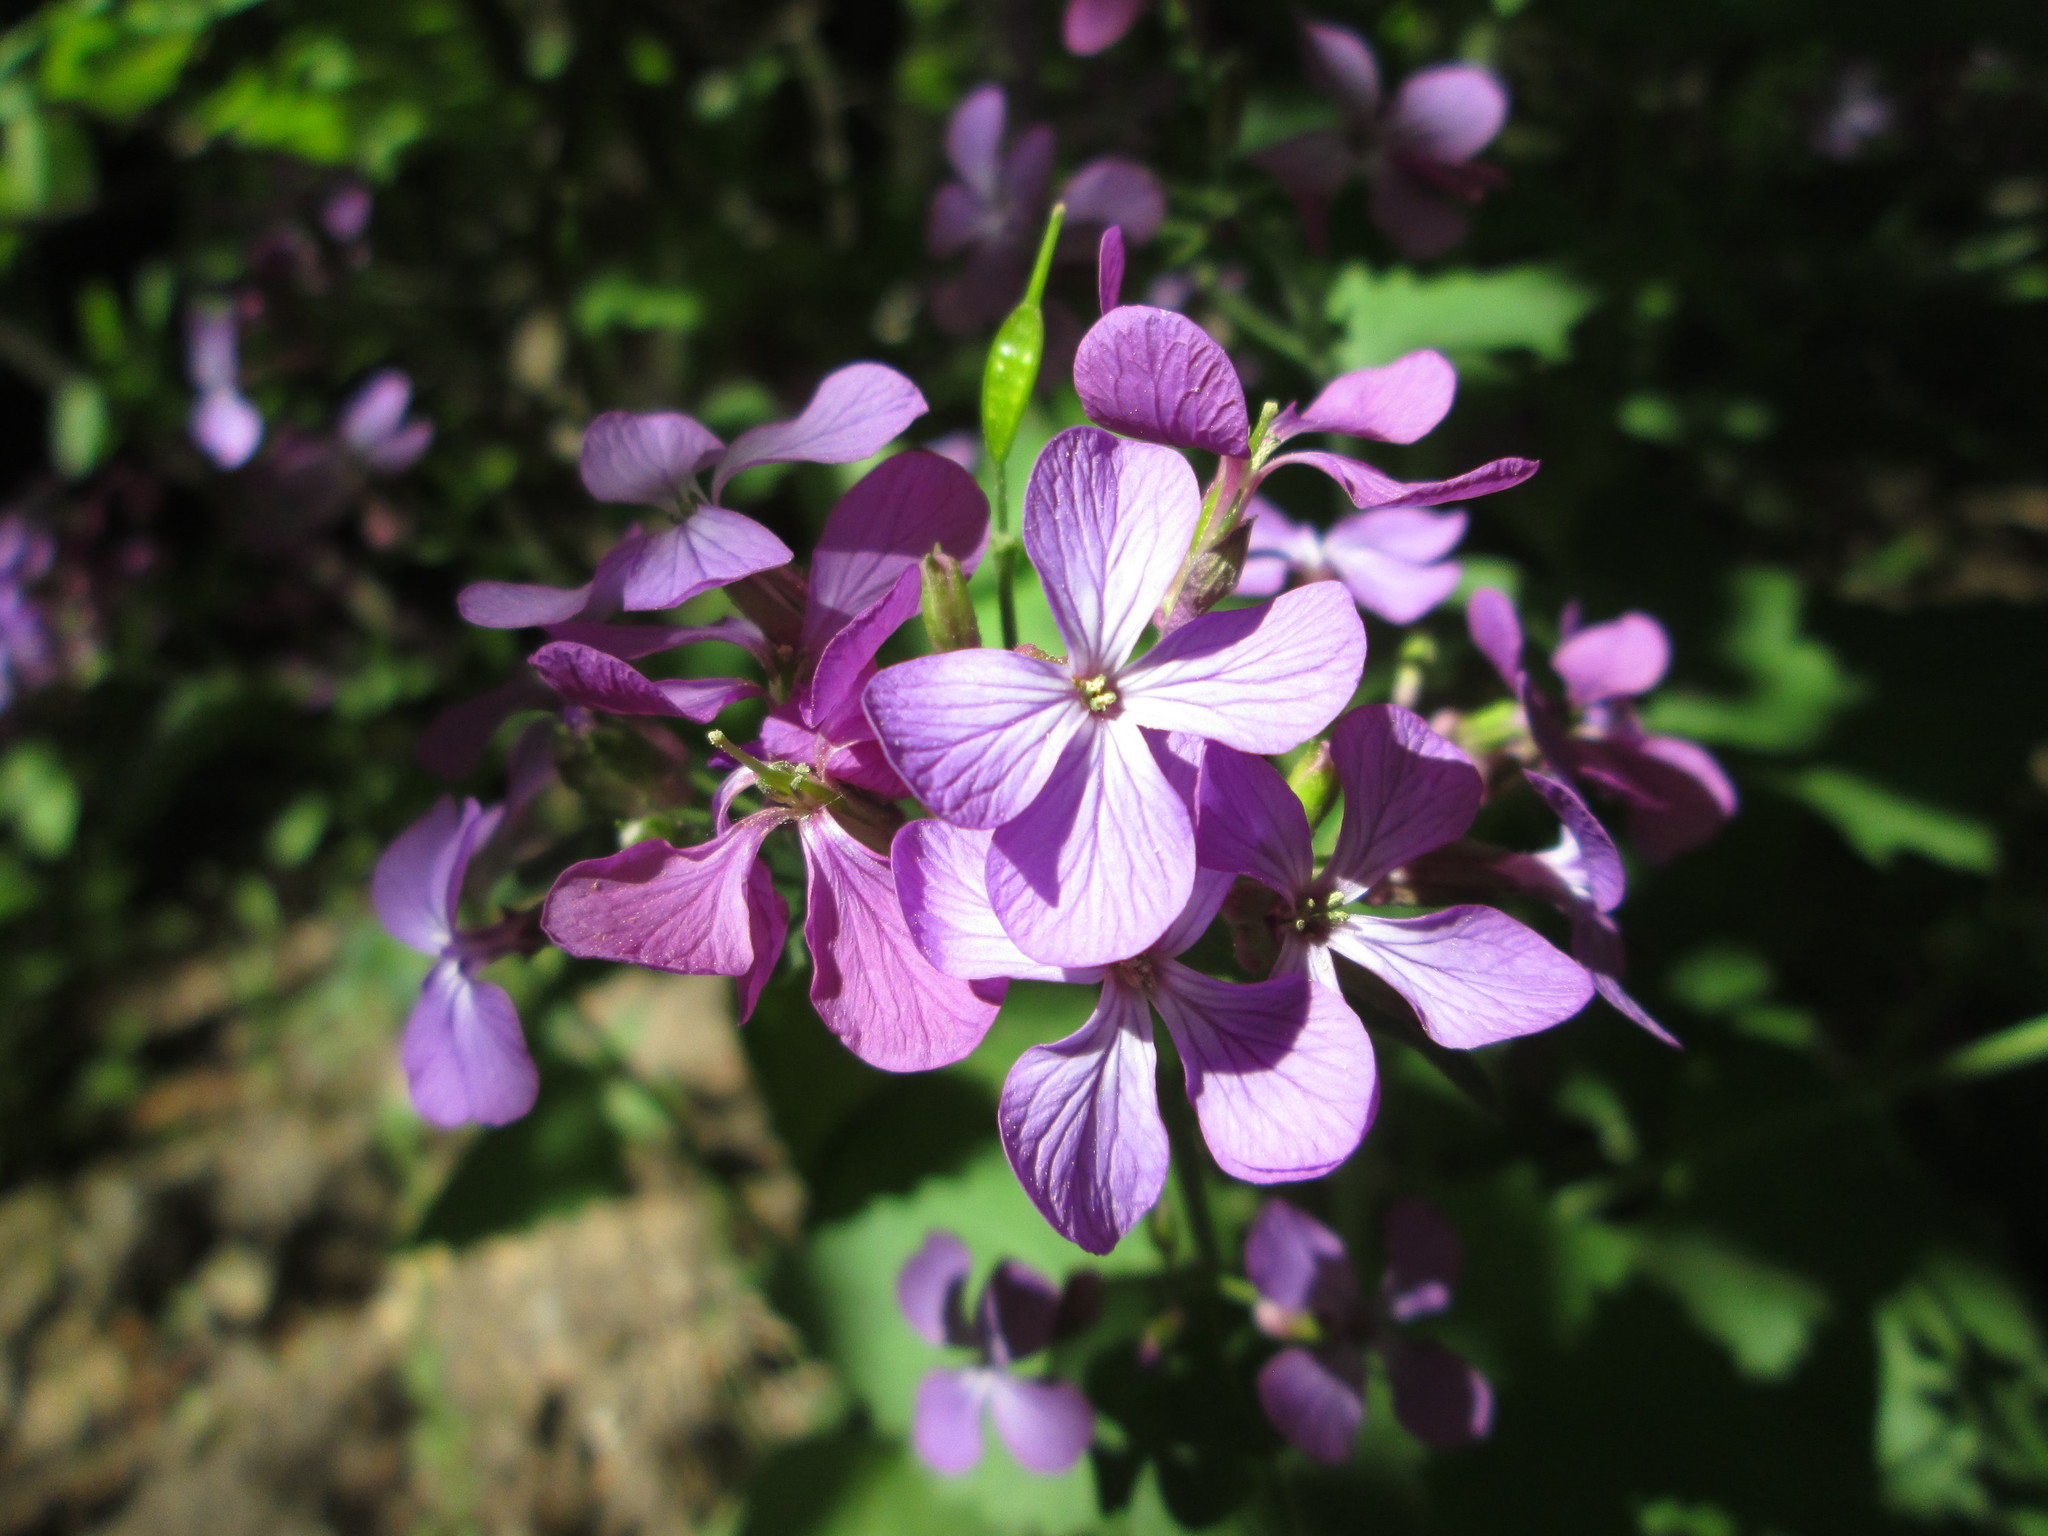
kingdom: Plantae
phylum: Tracheophyta
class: Magnoliopsida
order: Brassicales
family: Brassicaceae
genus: Lunaria
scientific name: Lunaria annua
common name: Honesty
